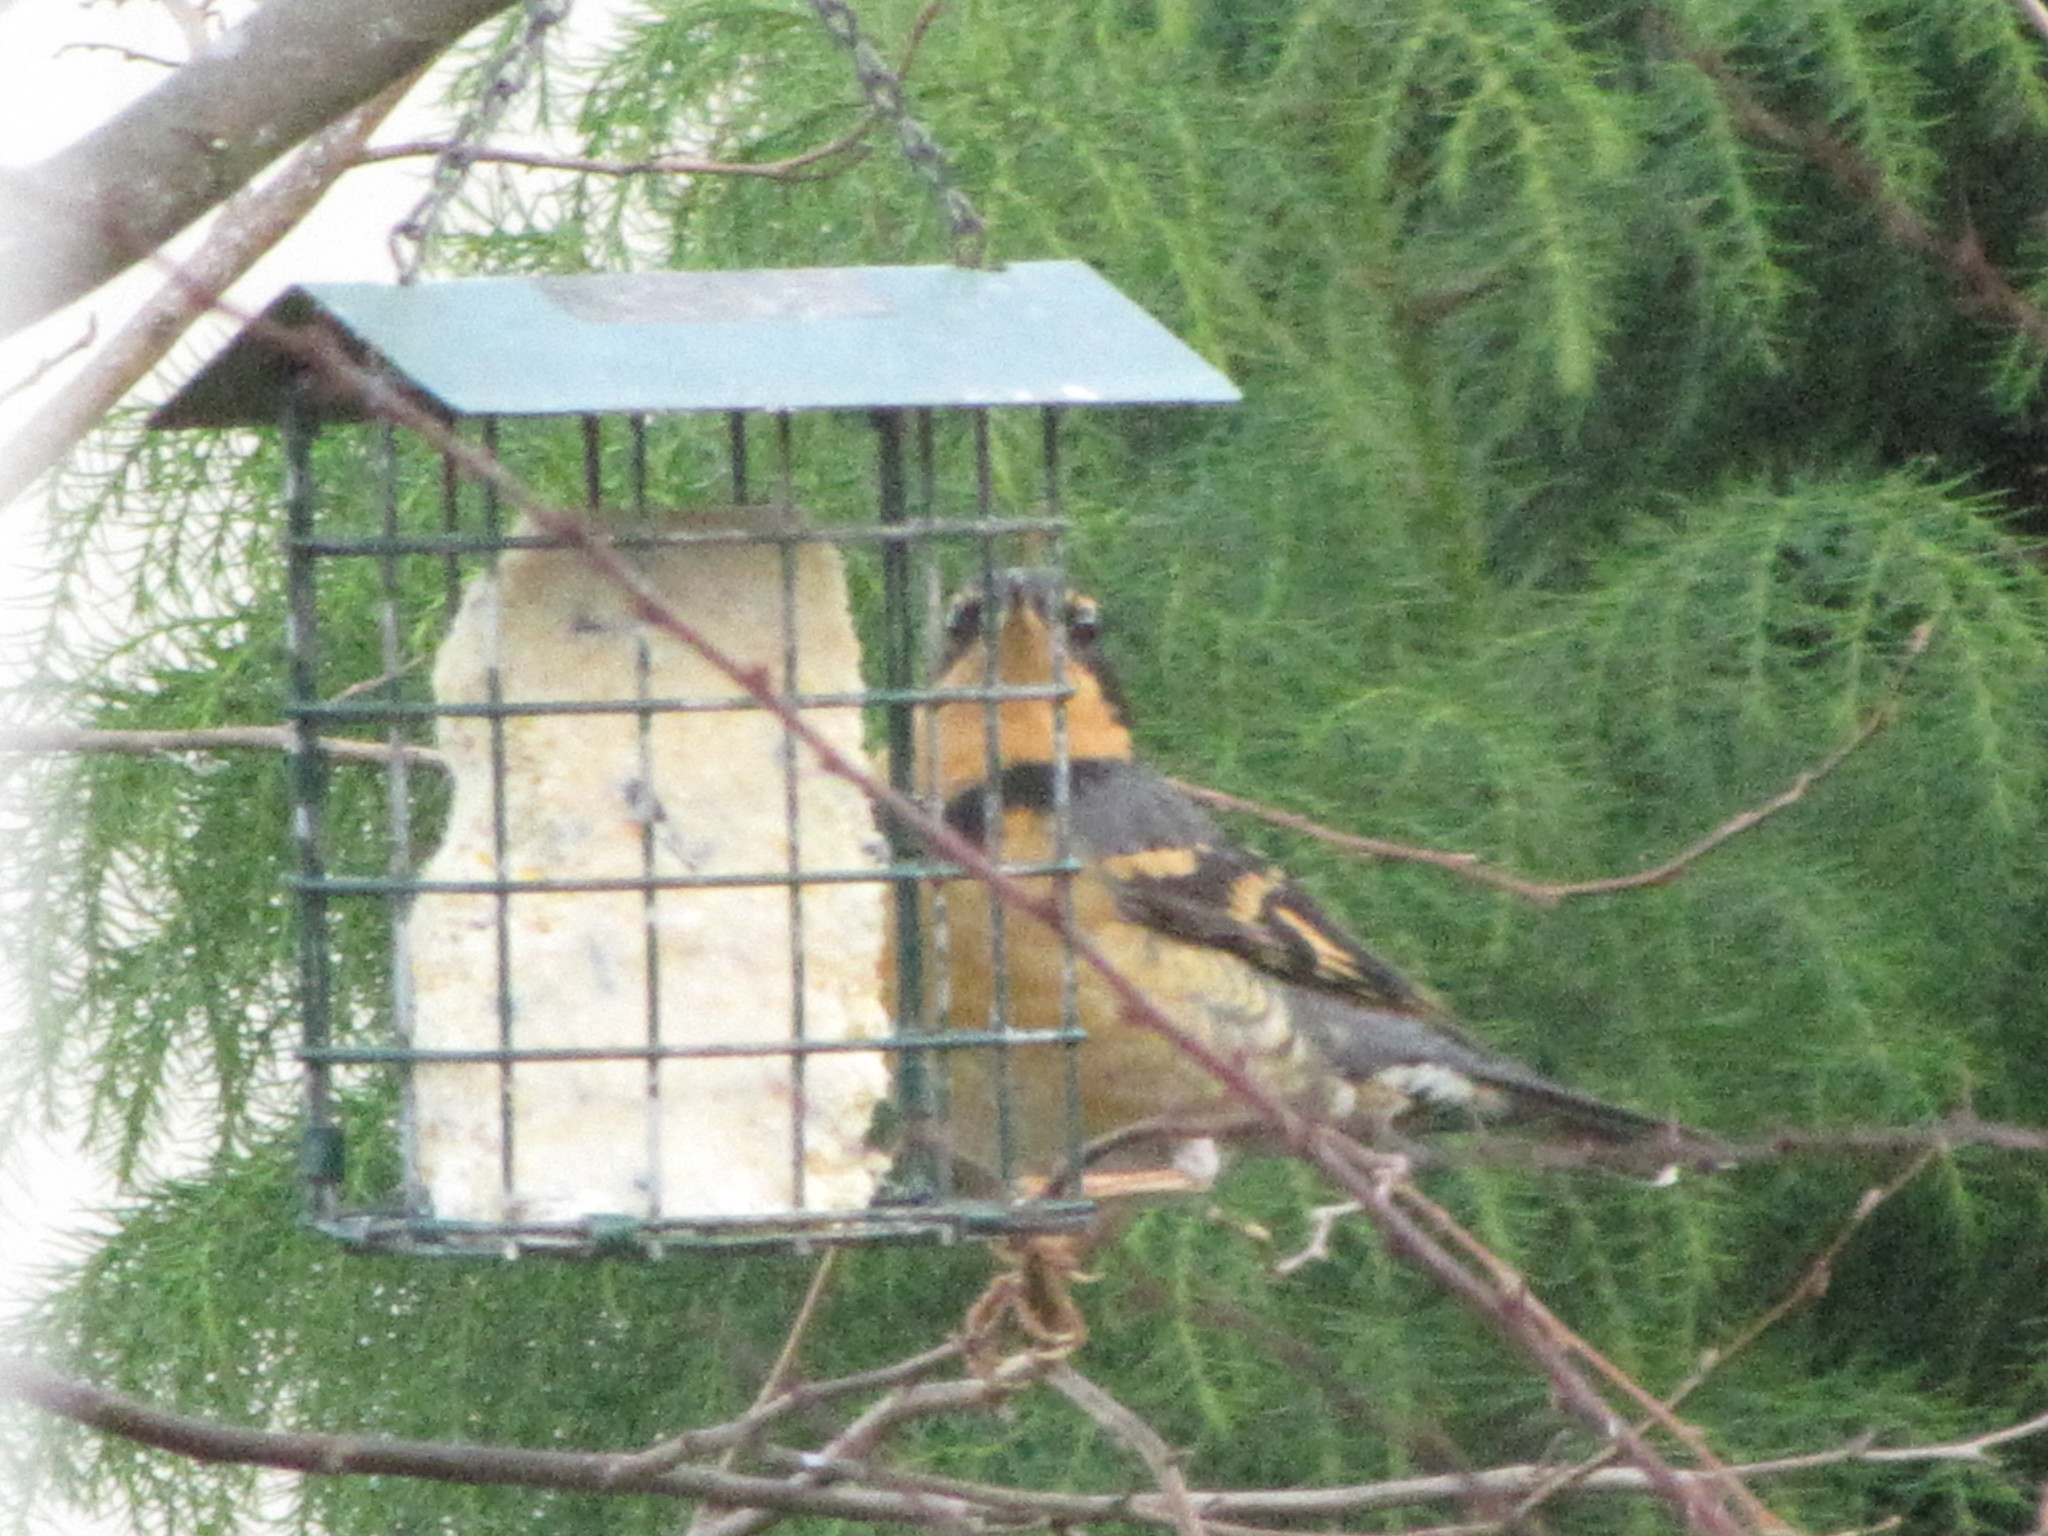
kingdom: Animalia
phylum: Chordata
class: Aves
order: Passeriformes
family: Turdidae
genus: Ixoreus
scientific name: Ixoreus naevius
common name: Varied thrush
